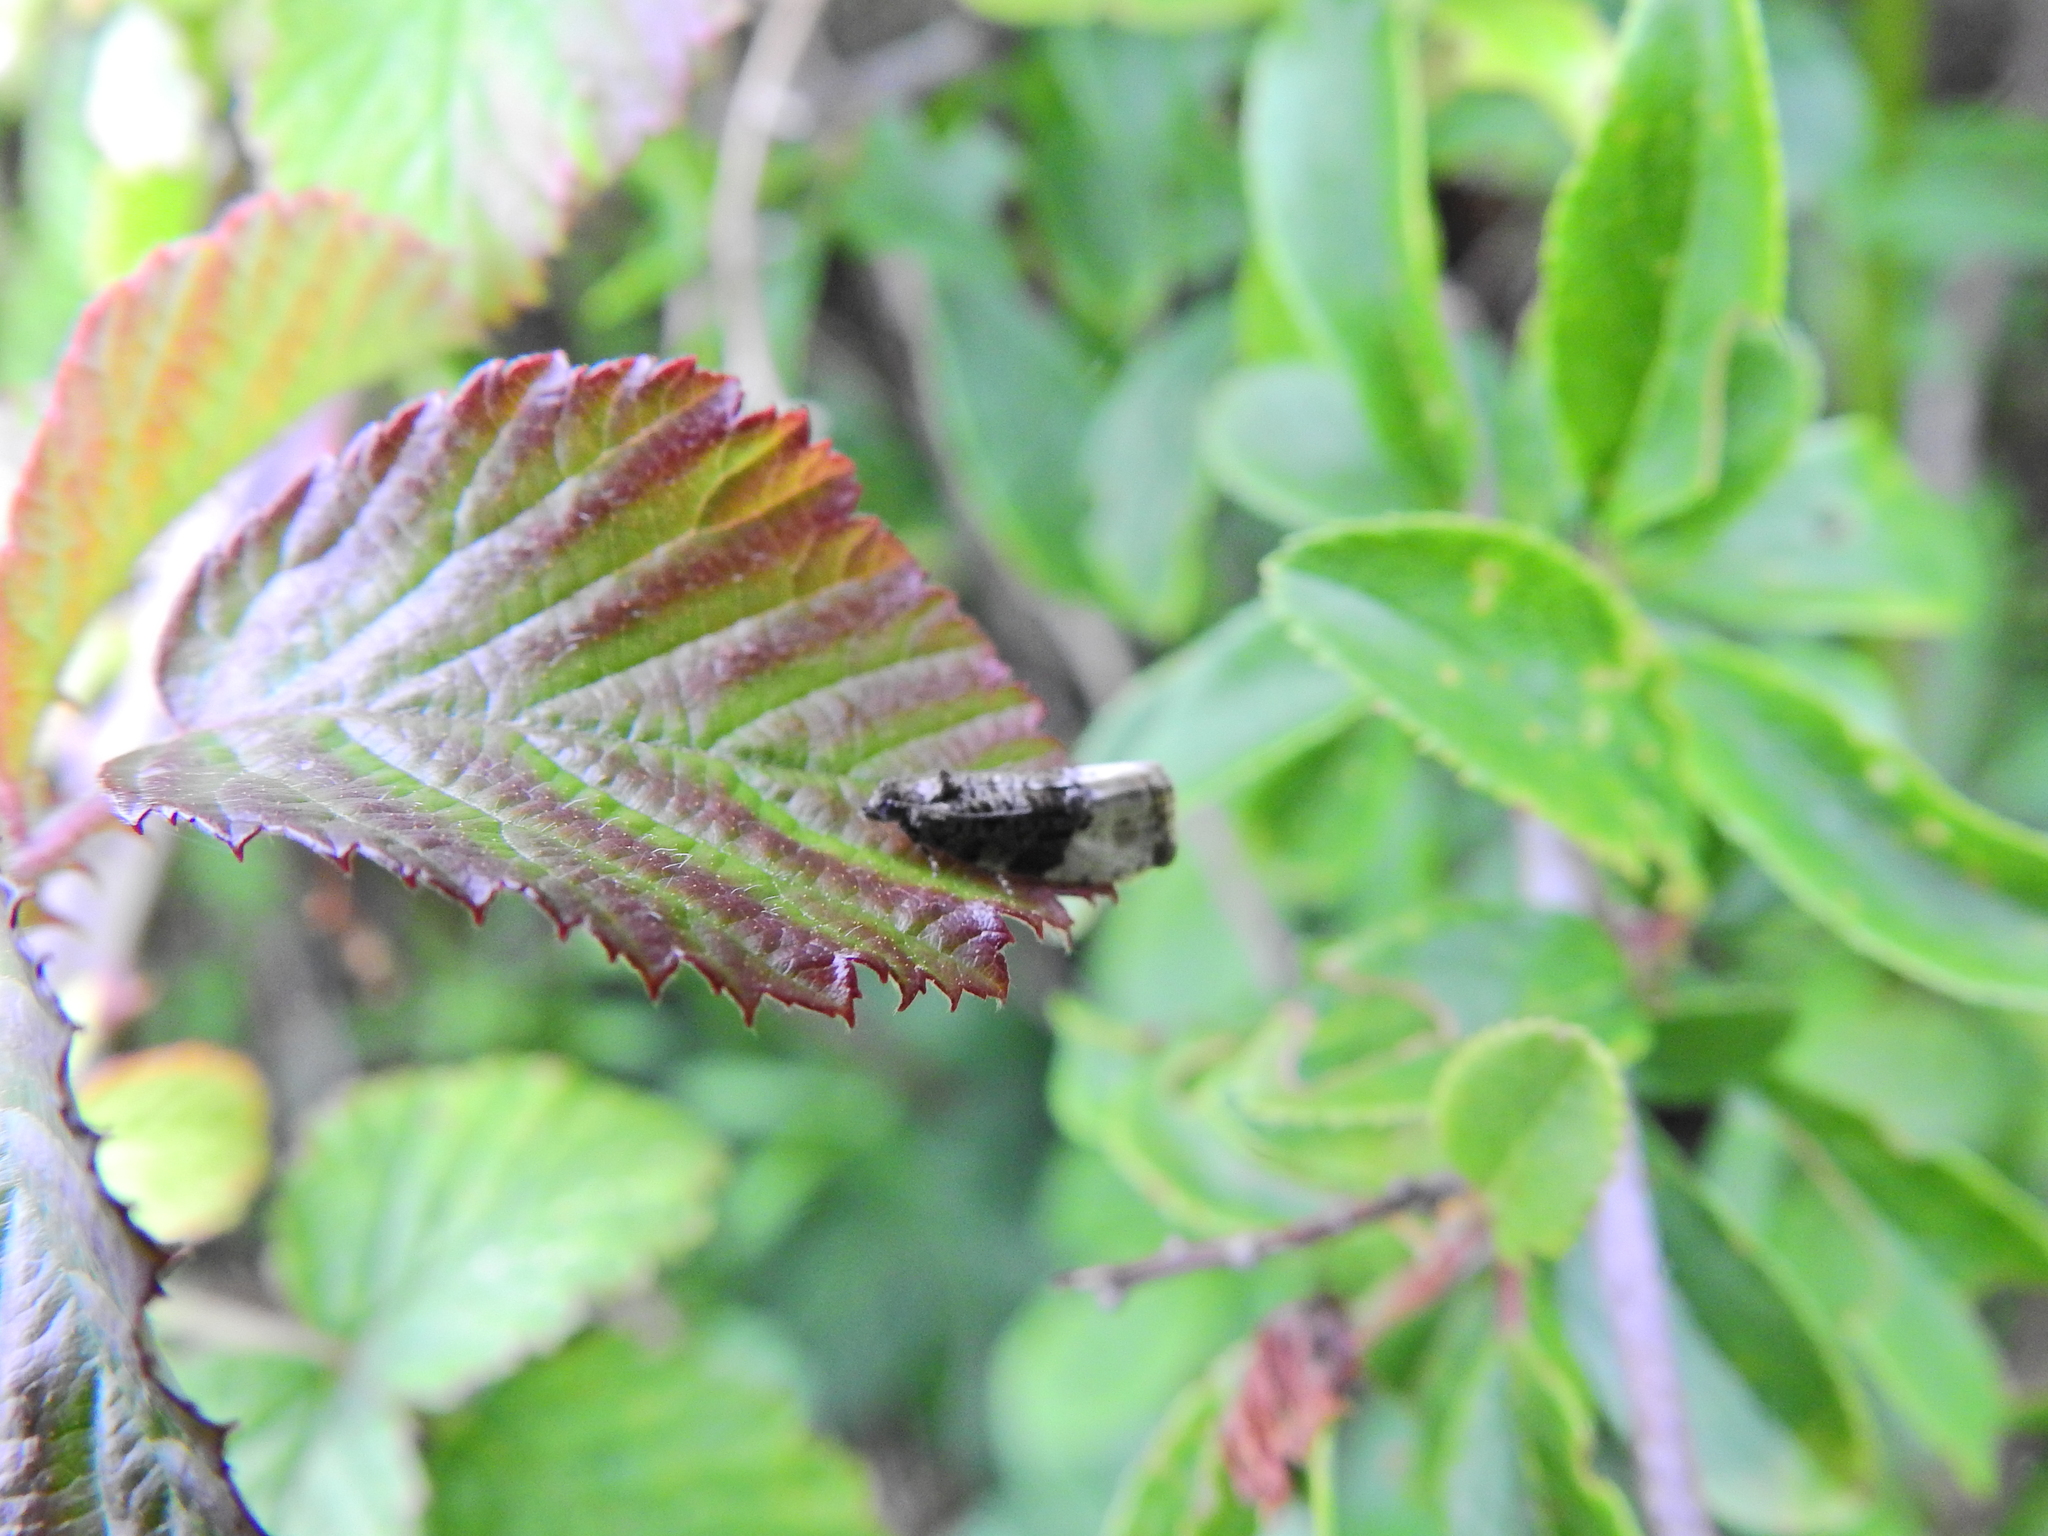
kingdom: Animalia
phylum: Arthropoda
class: Insecta
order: Lepidoptera
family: Tortricidae
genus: Hedya
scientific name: Hedya ochroleucana
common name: Buff-tipped marble
